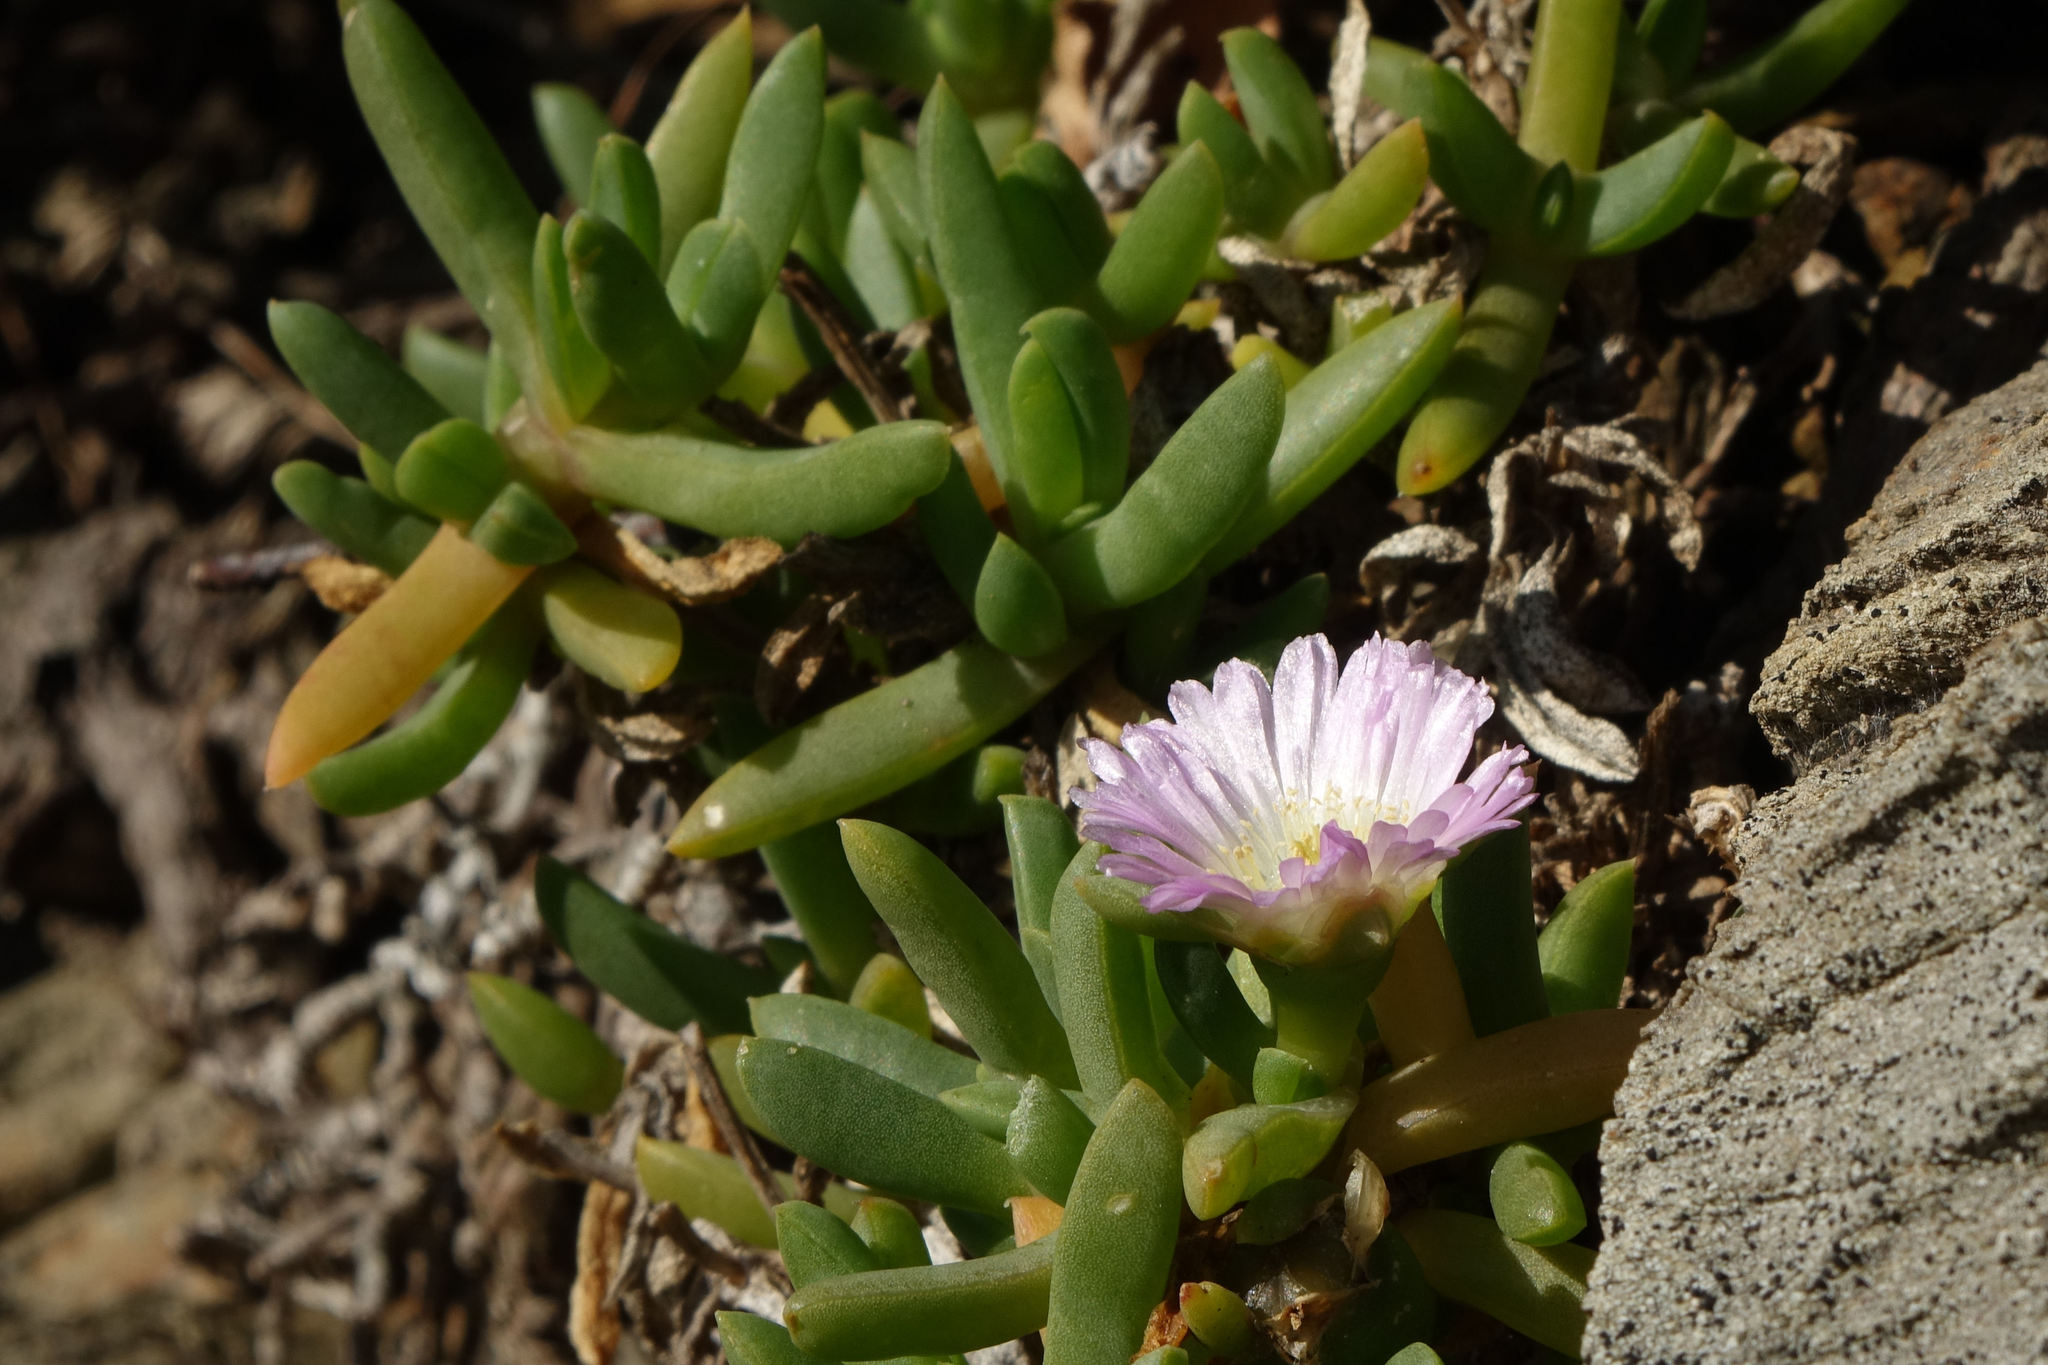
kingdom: Plantae
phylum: Tracheophyta
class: Magnoliopsida
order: Caryophyllales
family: Aizoaceae
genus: Disphyma
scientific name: Disphyma australe
